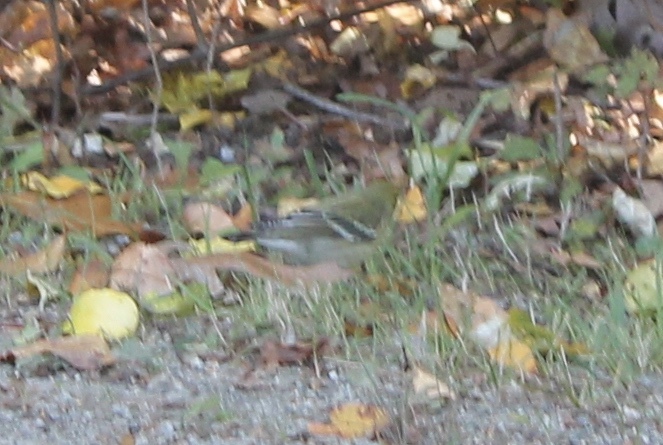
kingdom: Animalia
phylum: Chordata
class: Aves
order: Passeriformes
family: Parulidae
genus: Setophaga
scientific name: Setophaga striata
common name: Blackpoll warbler
